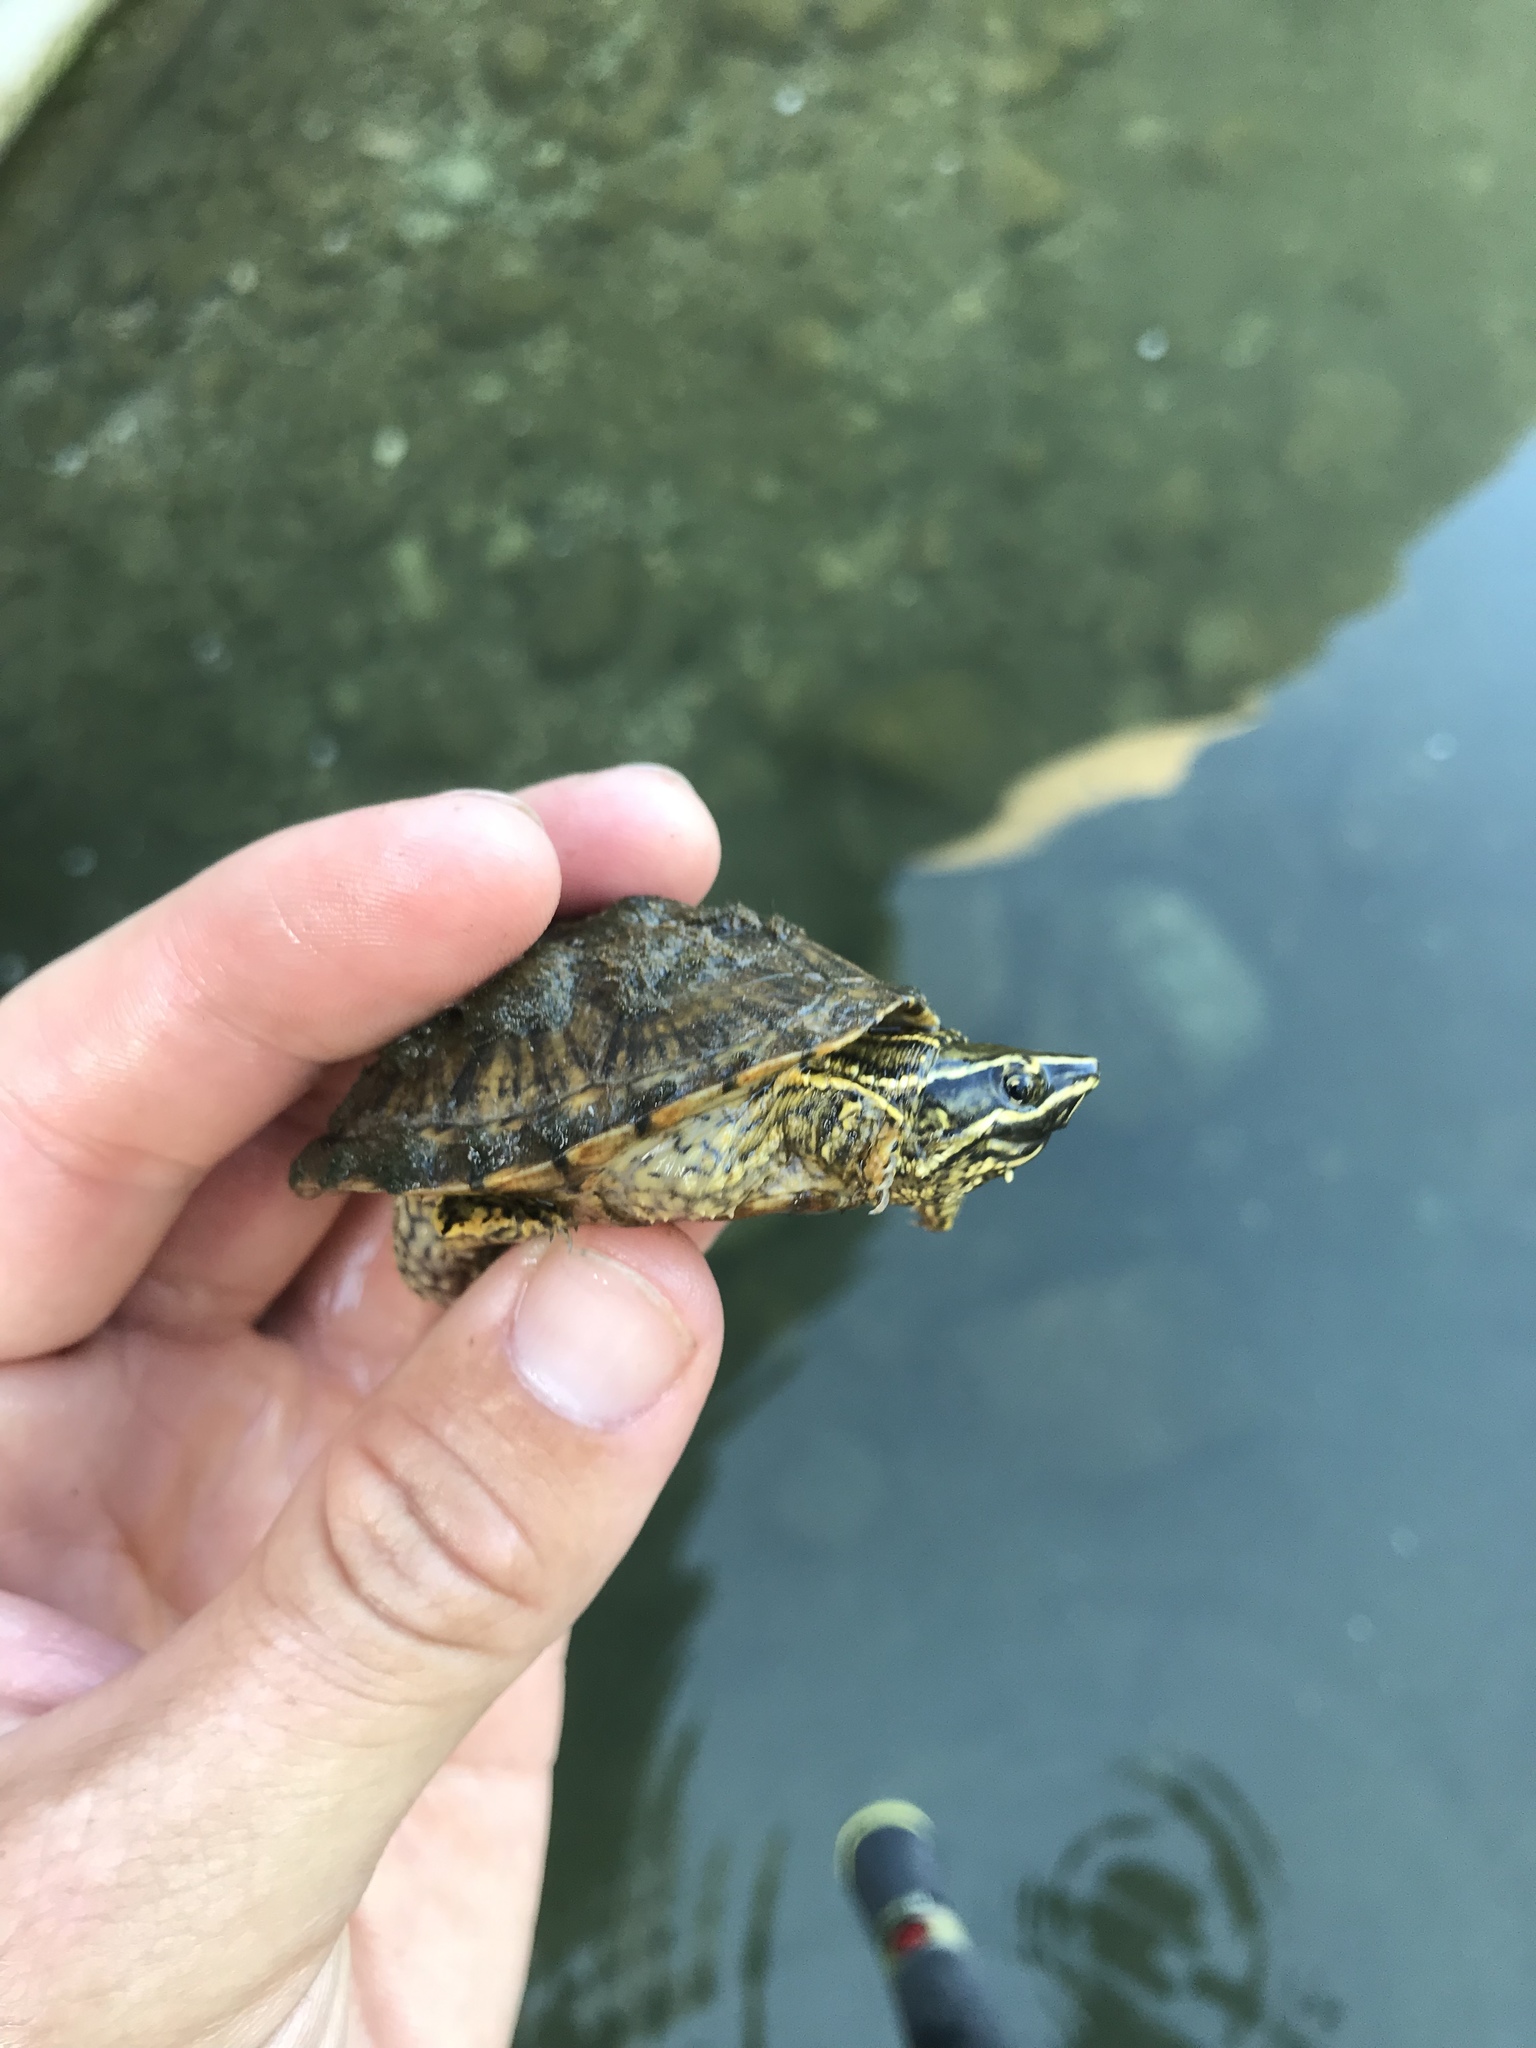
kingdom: Animalia
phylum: Chordata
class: Testudines
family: Kinosternidae
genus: Sternotherus
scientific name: Sternotherus odoratus
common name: Common musk turtle
